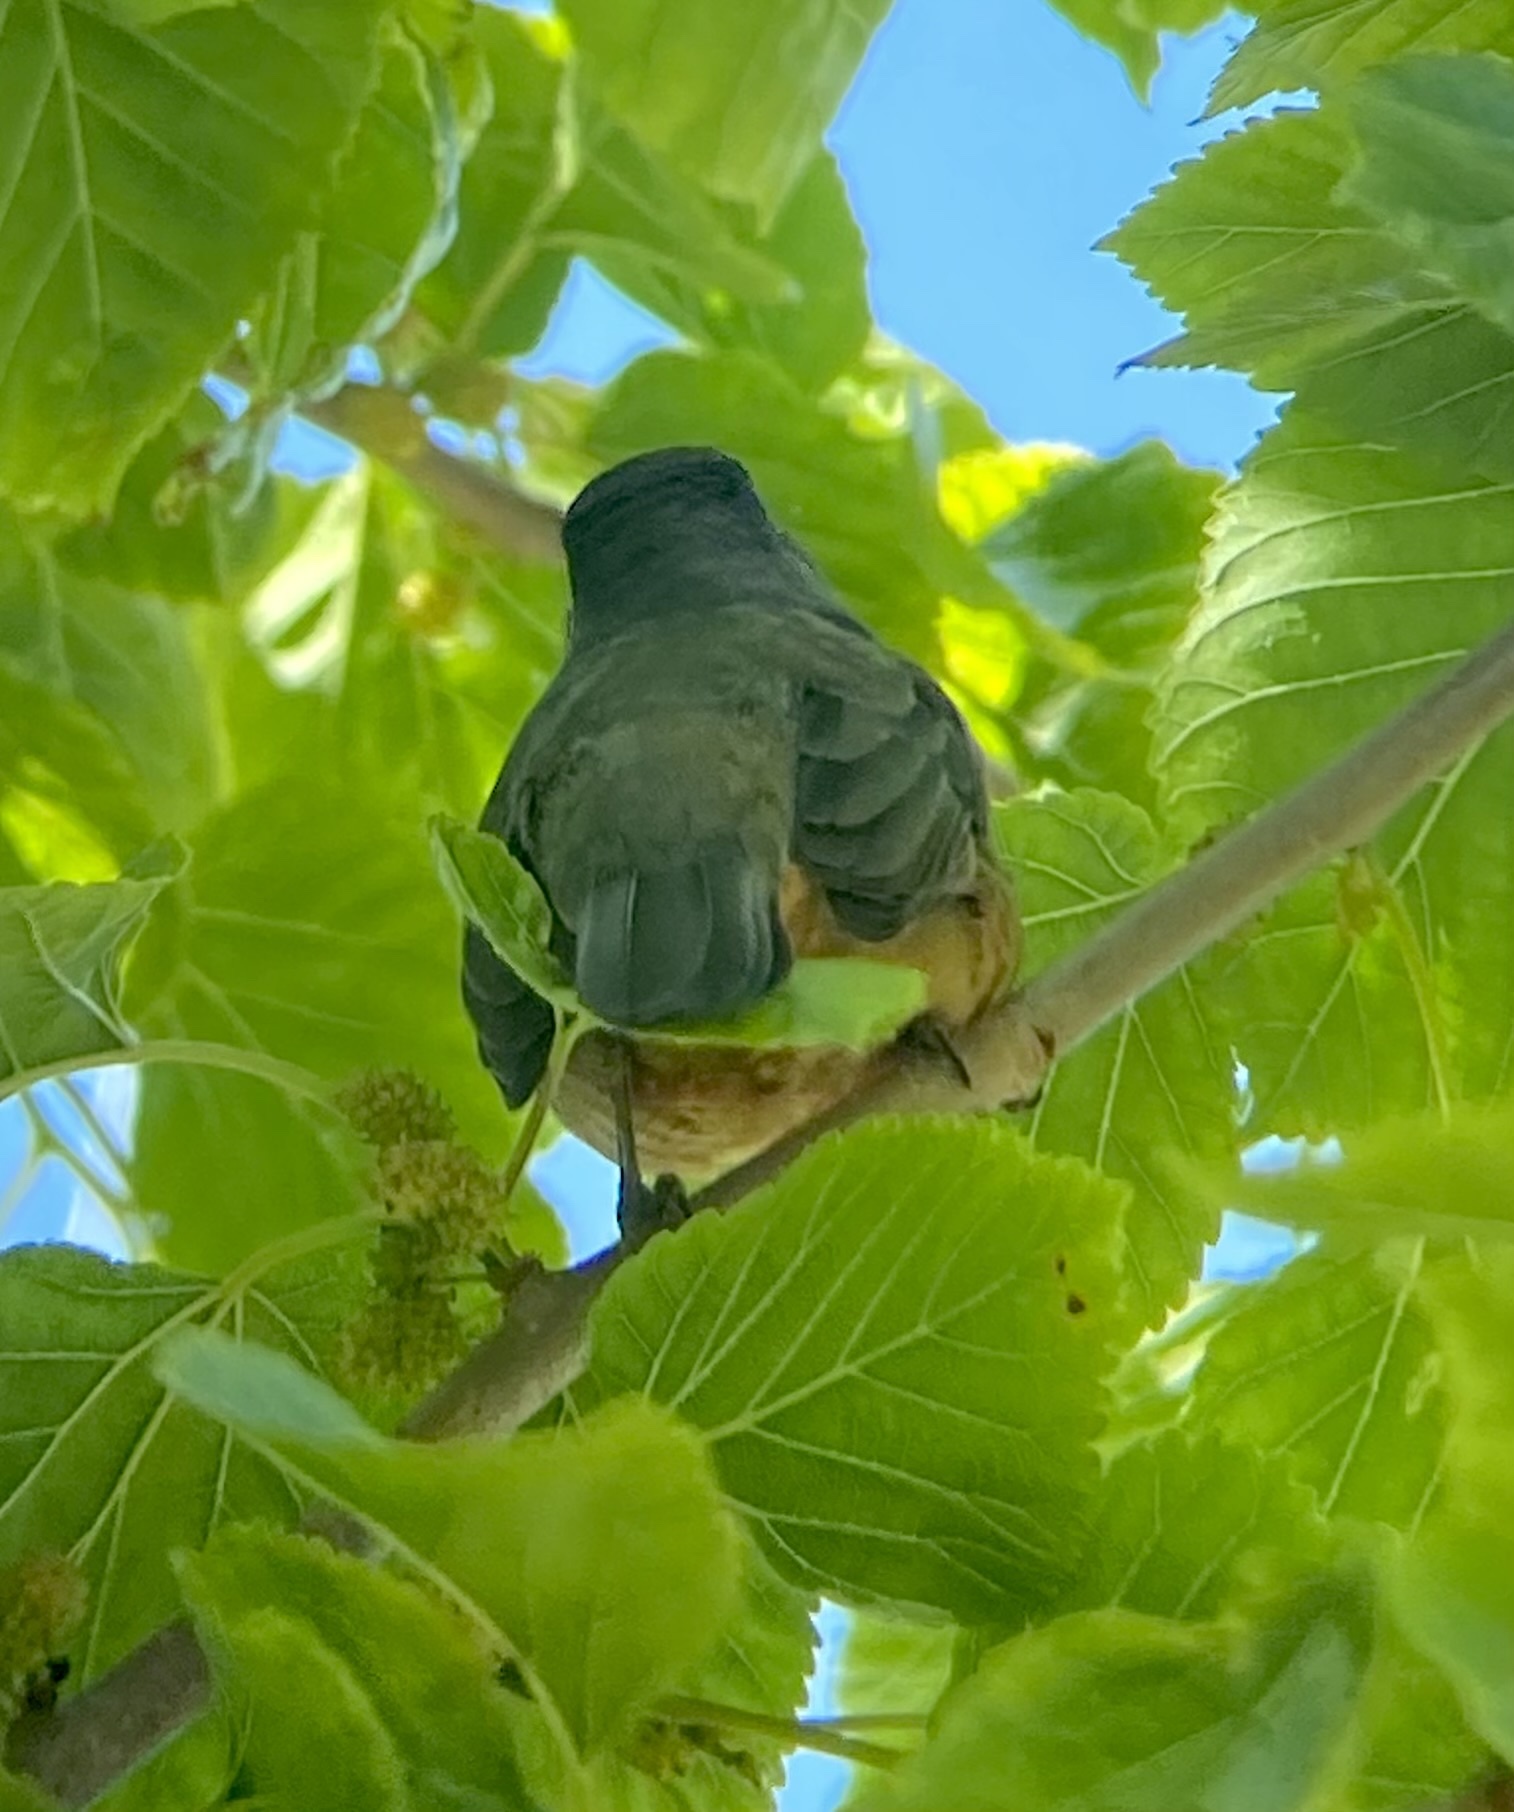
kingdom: Animalia
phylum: Chordata
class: Aves
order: Passeriformes
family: Thraupidae
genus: Saltator
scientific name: Saltator aurantiirostris
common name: Golden-billed saltator
